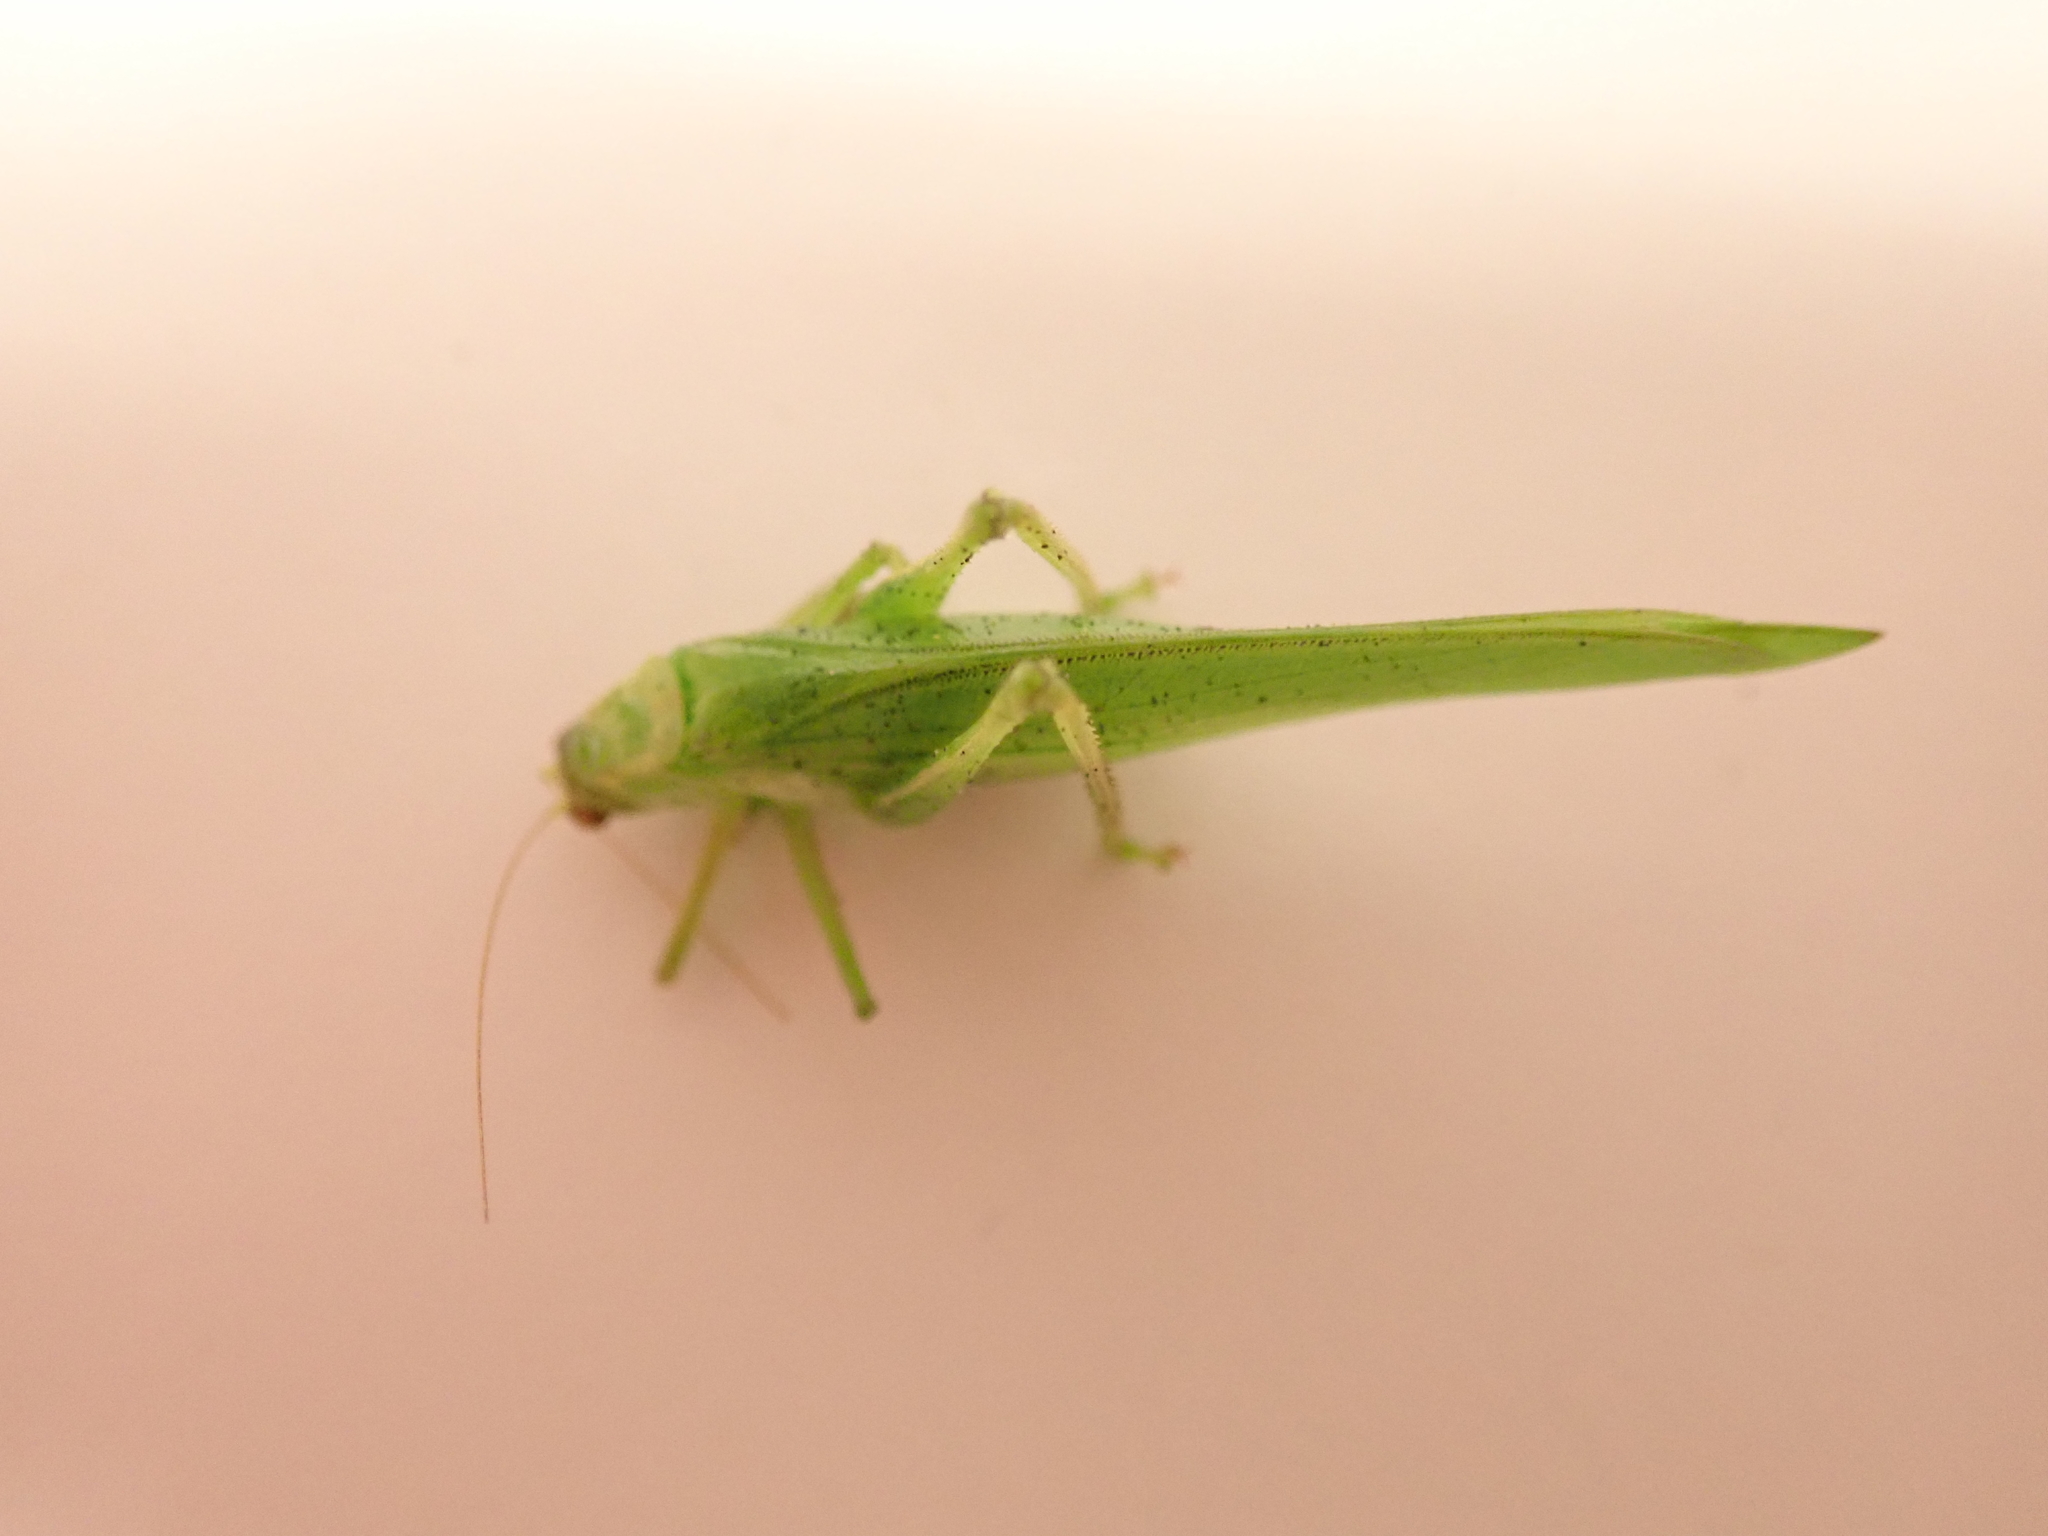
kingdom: Animalia
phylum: Arthropoda
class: Insecta
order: Orthoptera
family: Tettigoniidae
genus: Caedicia
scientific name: Caedicia simplex
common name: Common garden katydid
